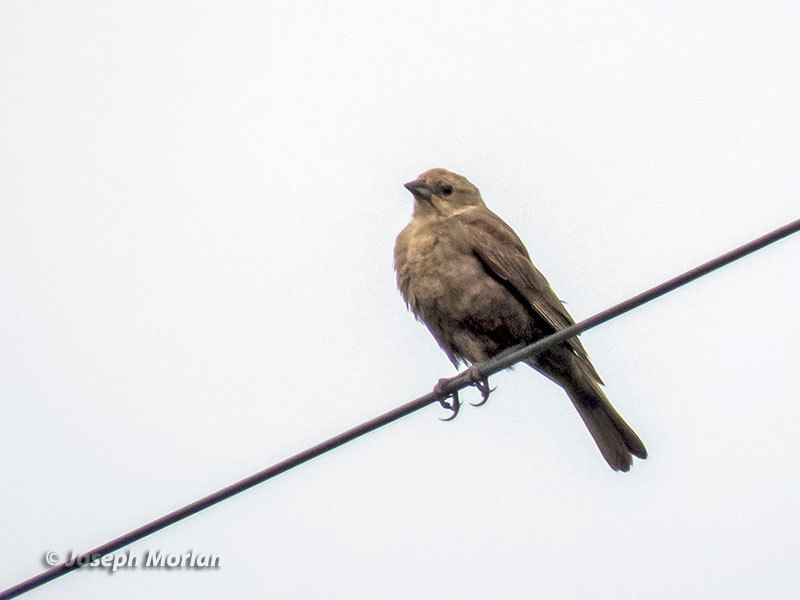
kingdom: Animalia
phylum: Chordata
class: Aves
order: Passeriformes
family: Icteridae
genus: Molothrus
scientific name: Molothrus ater
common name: Brown-headed cowbird
